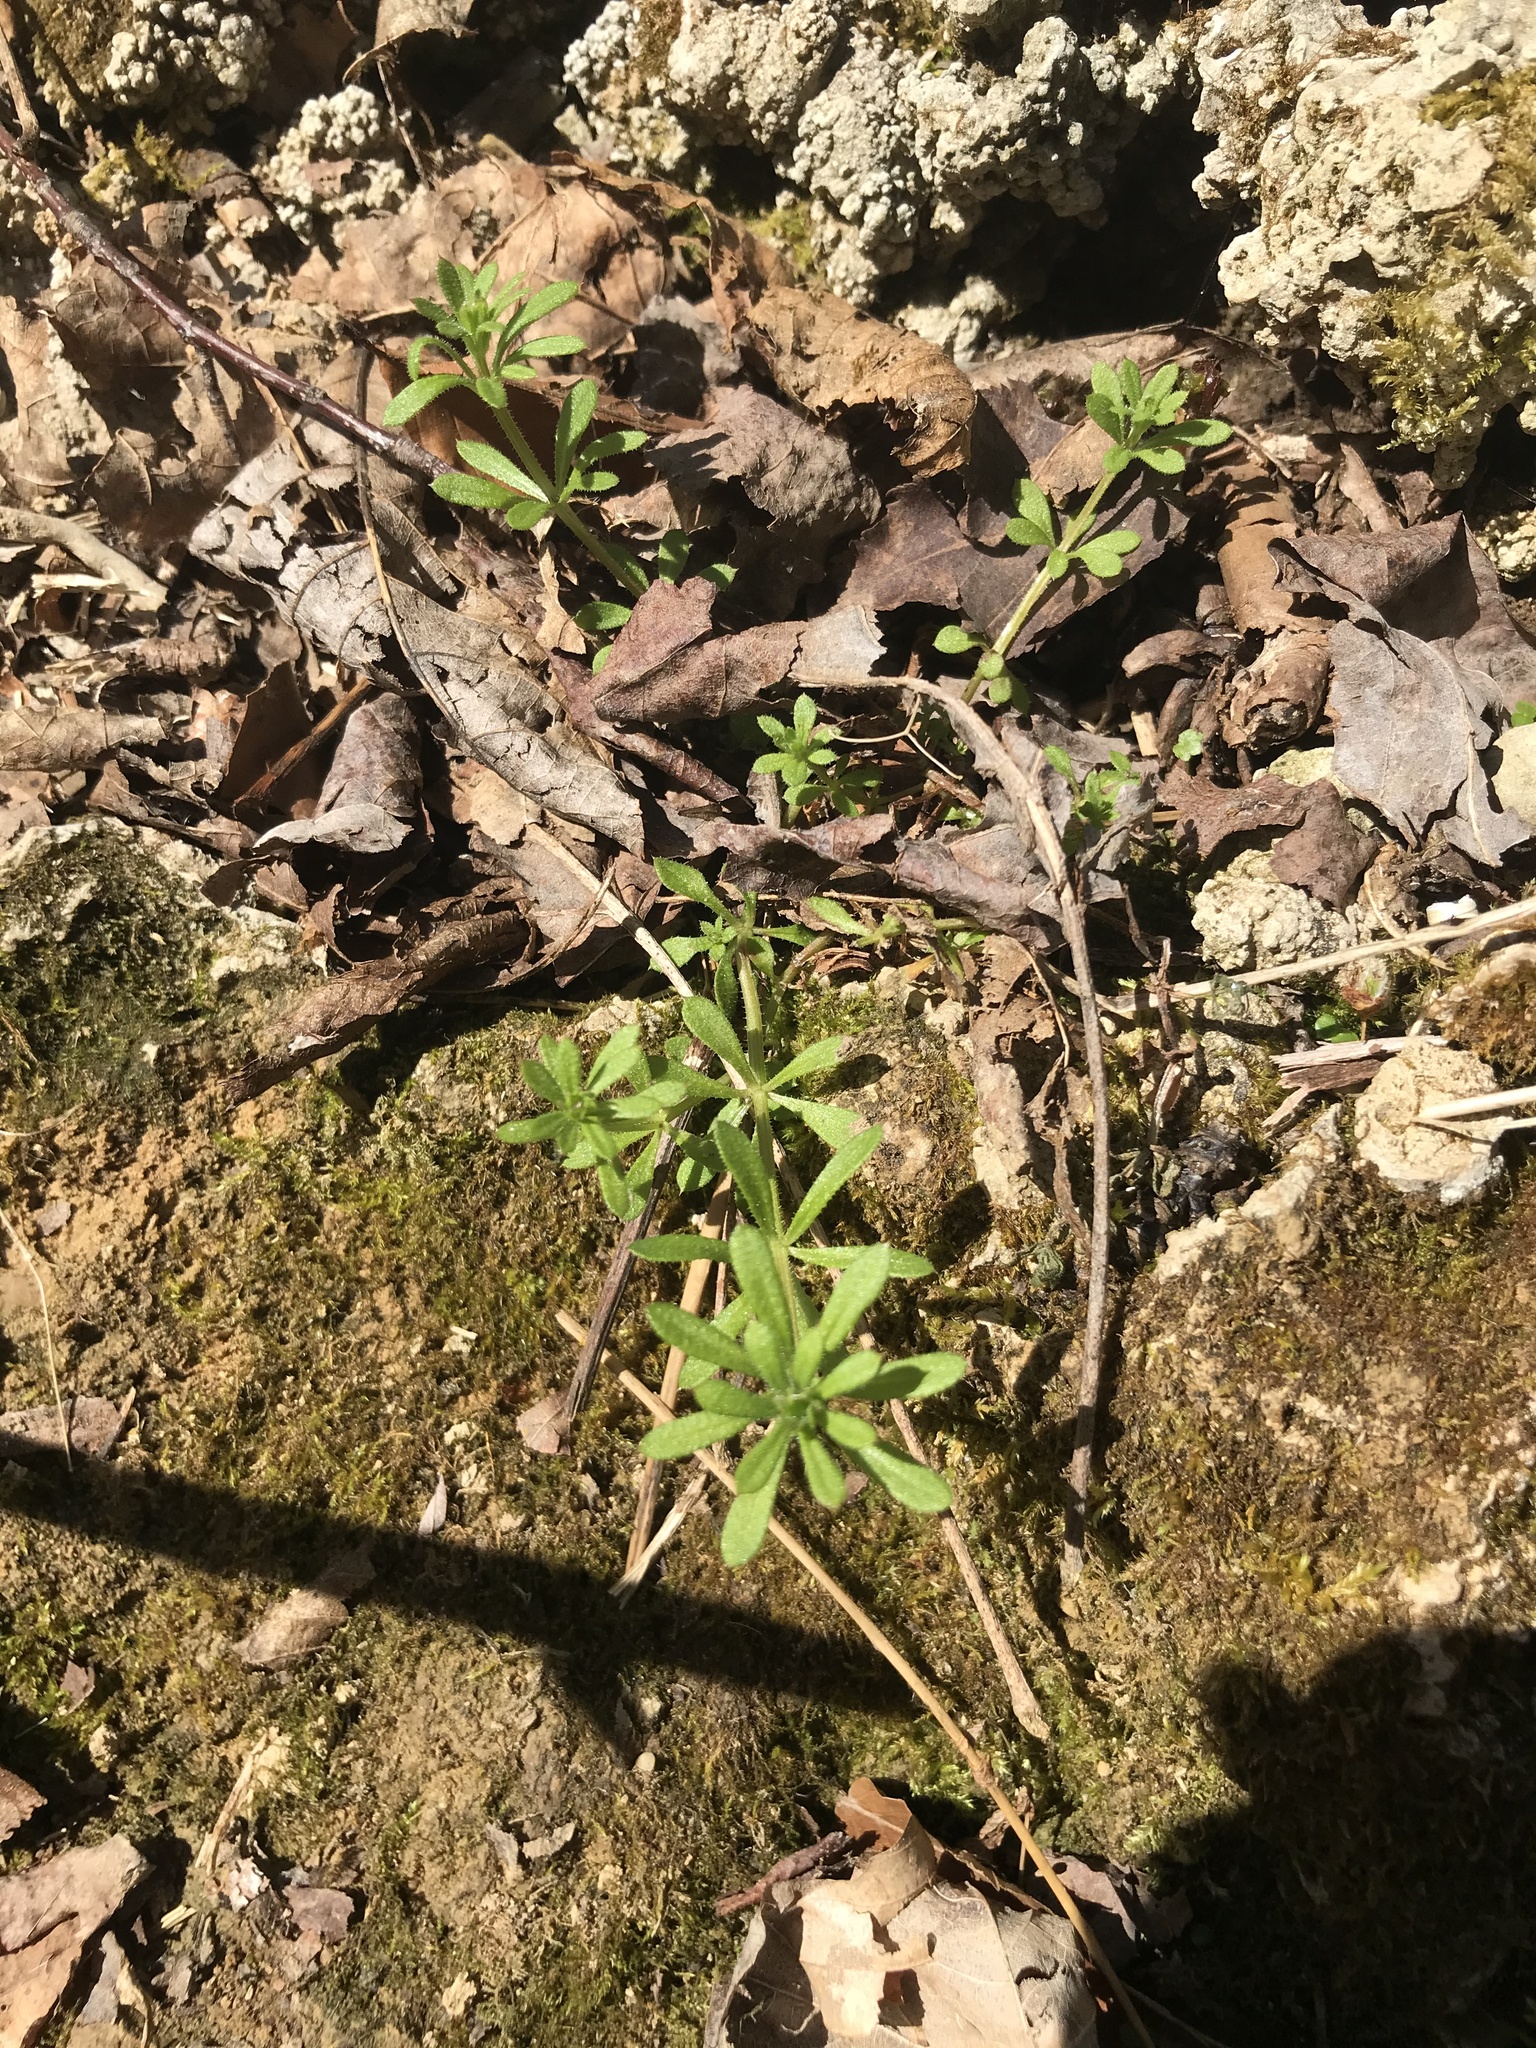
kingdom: Plantae
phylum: Tracheophyta
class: Magnoliopsida
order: Gentianales
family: Rubiaceae
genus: Galium
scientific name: Galium aparine
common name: Cleavers
